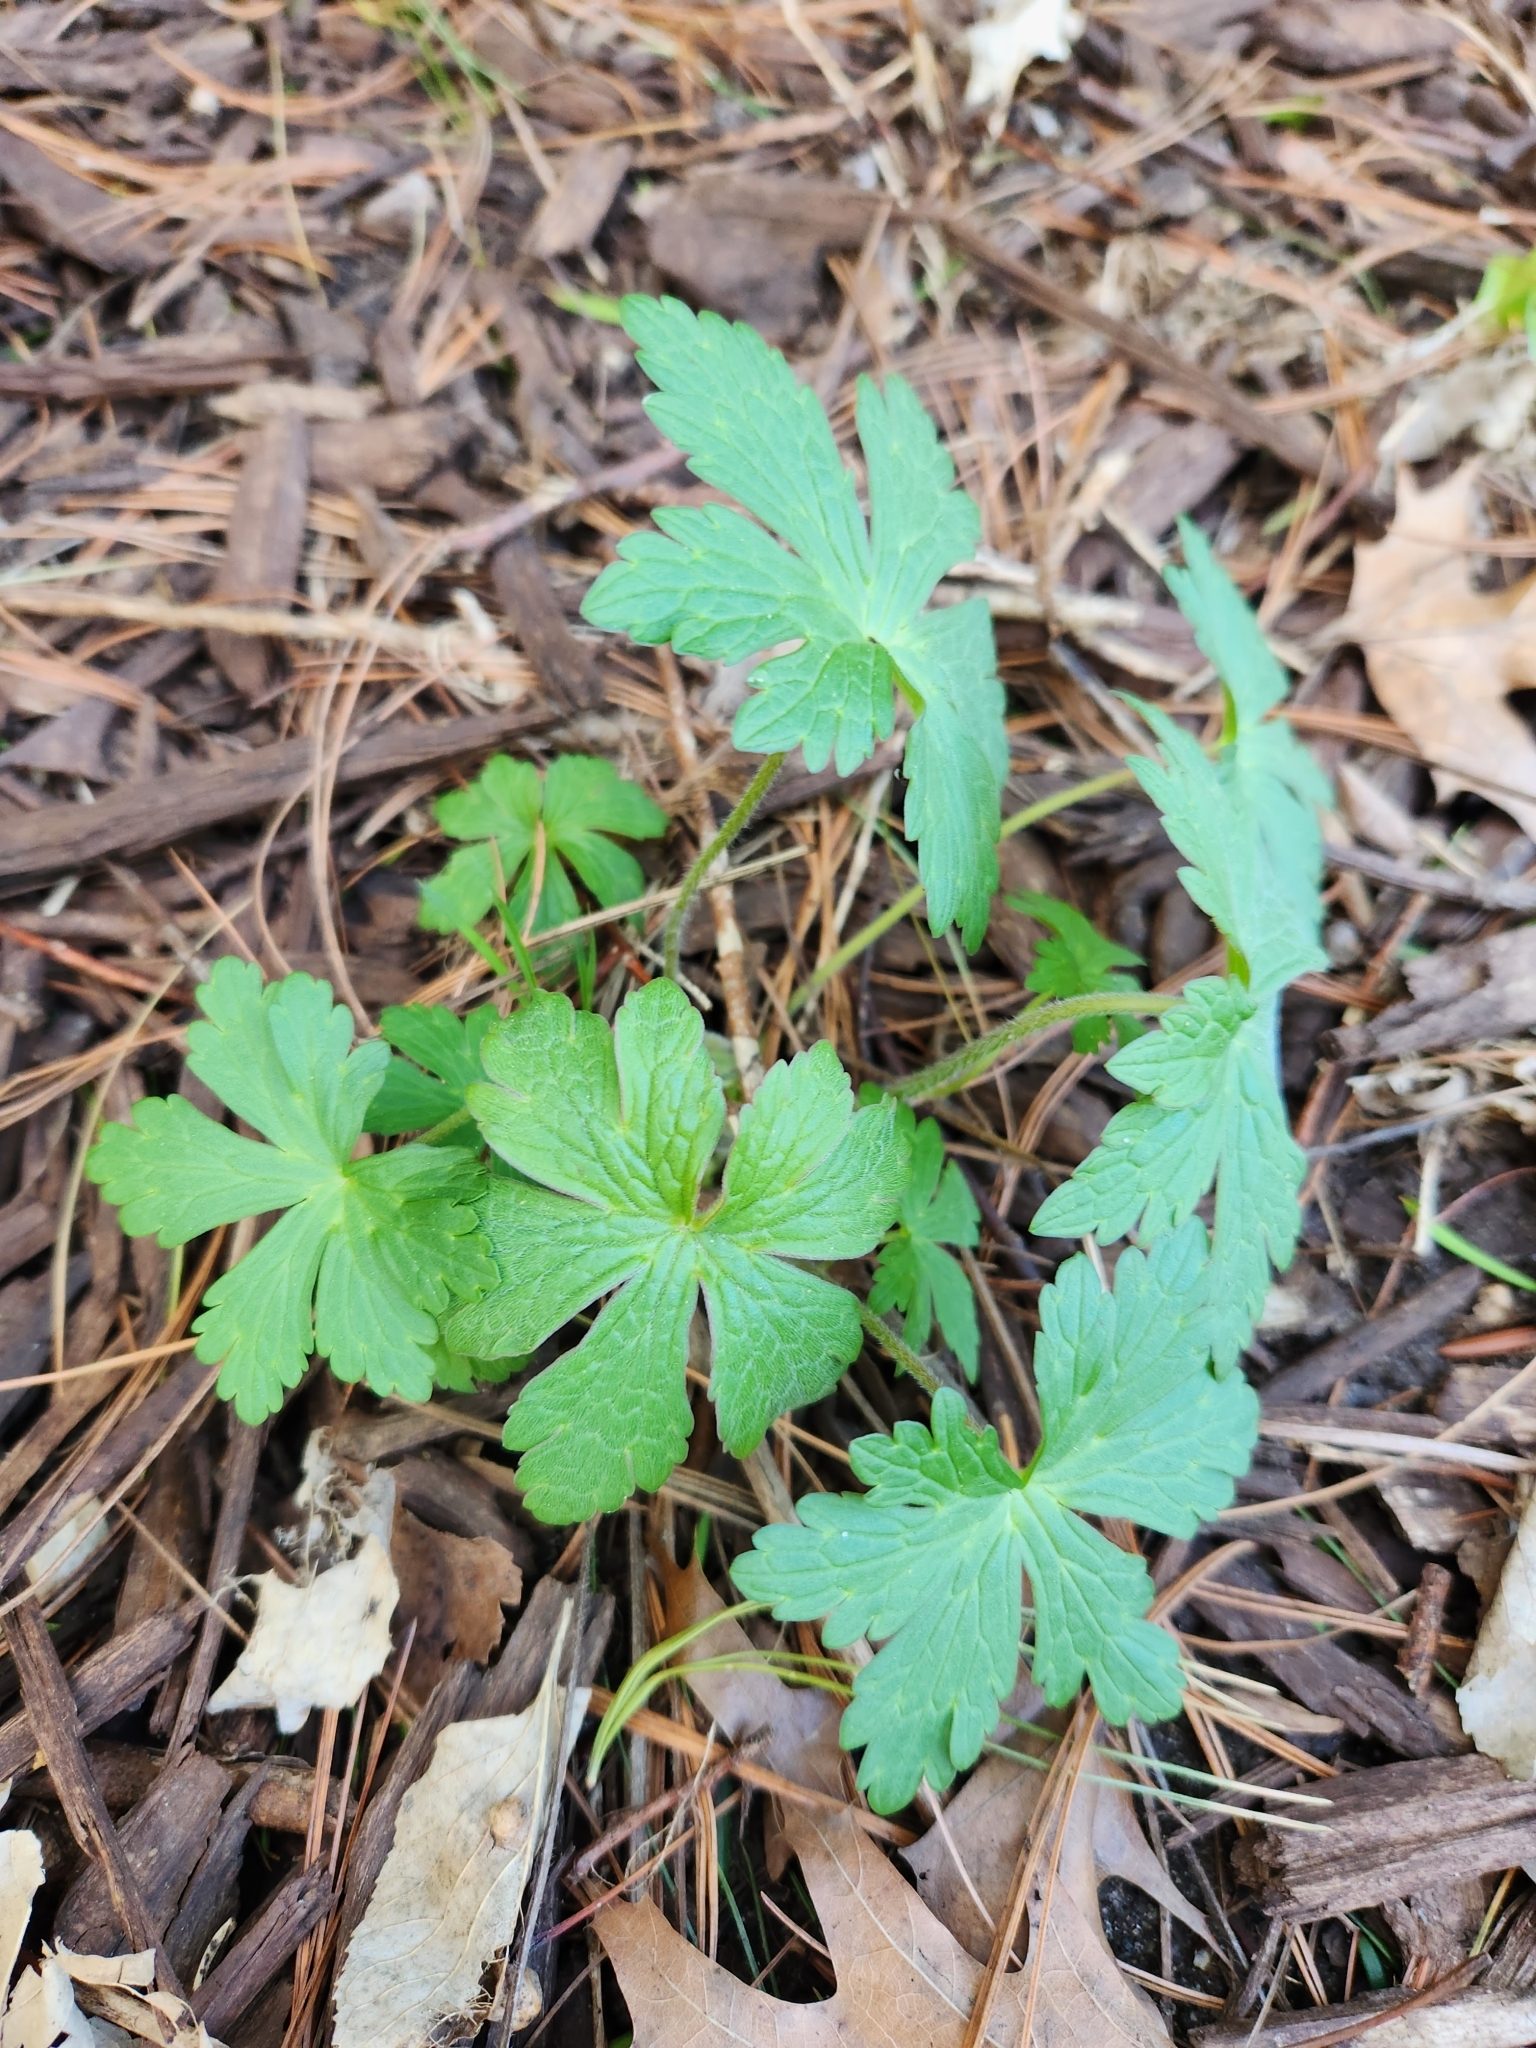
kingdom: Plantae
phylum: Tracheophyta
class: Magnoliopsida
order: Geraniales
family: Geraniaceae
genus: Geranium
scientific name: Geranium maculatum
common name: Spotted geranium
